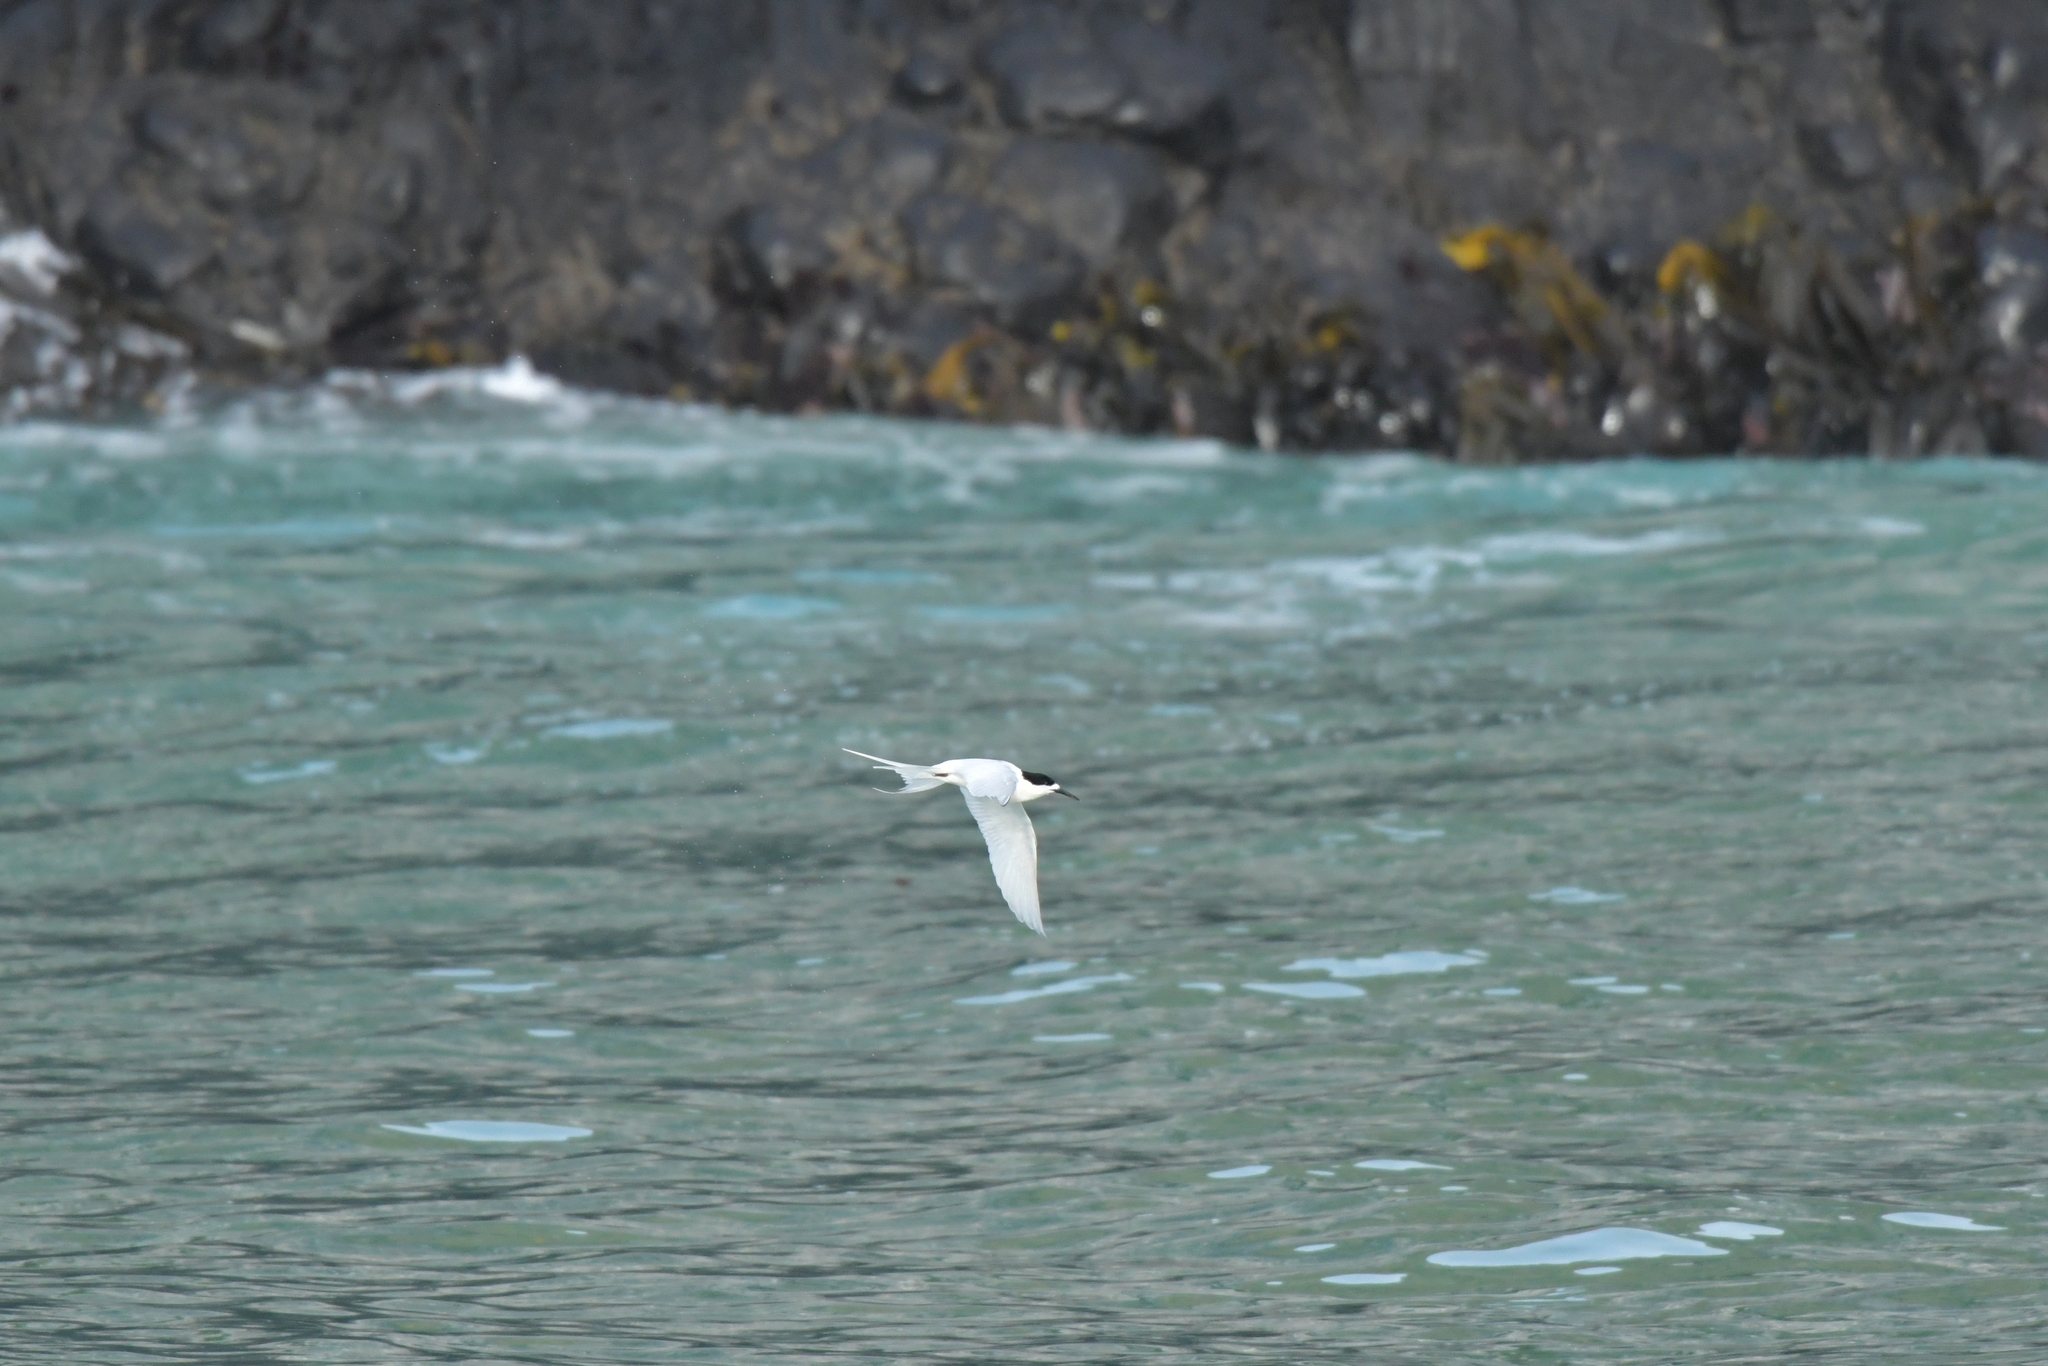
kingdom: Animalia
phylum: Chordata
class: Aves
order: Charadriiformes
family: Laridae
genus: Sterna
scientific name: Sterna striata
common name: White-fronted tern
